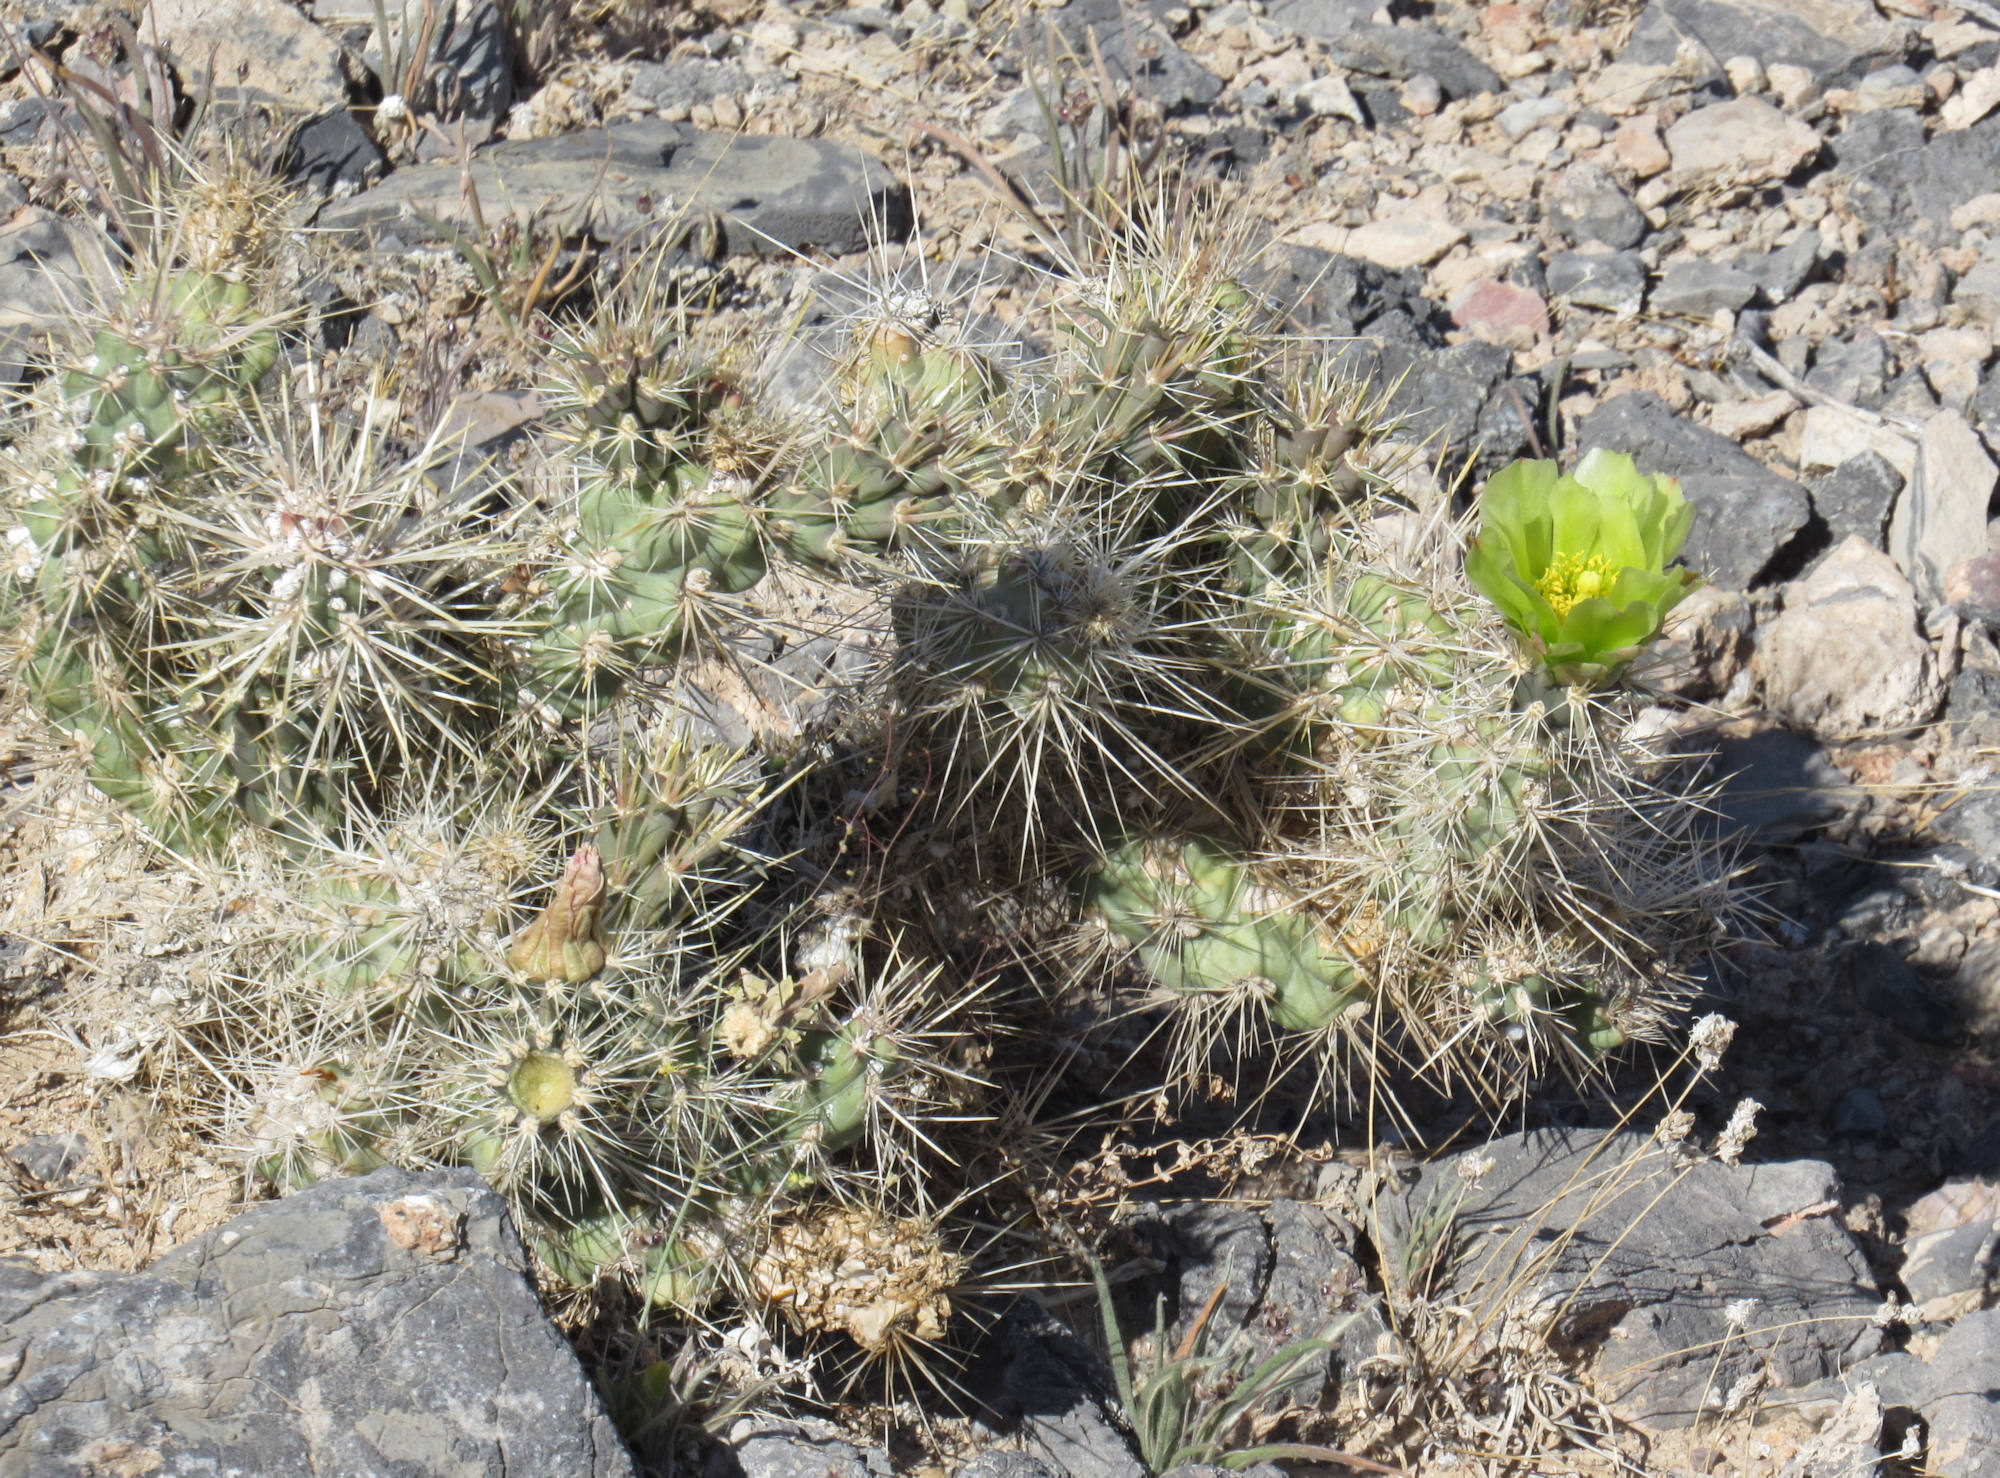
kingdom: Plantae
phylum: Tracheophyta
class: Magnoliopsida
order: Caryophyllales
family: Cactaceae
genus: Cylindropuntia
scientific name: Cylindropuntia echinocarpa
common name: Ground cholla
